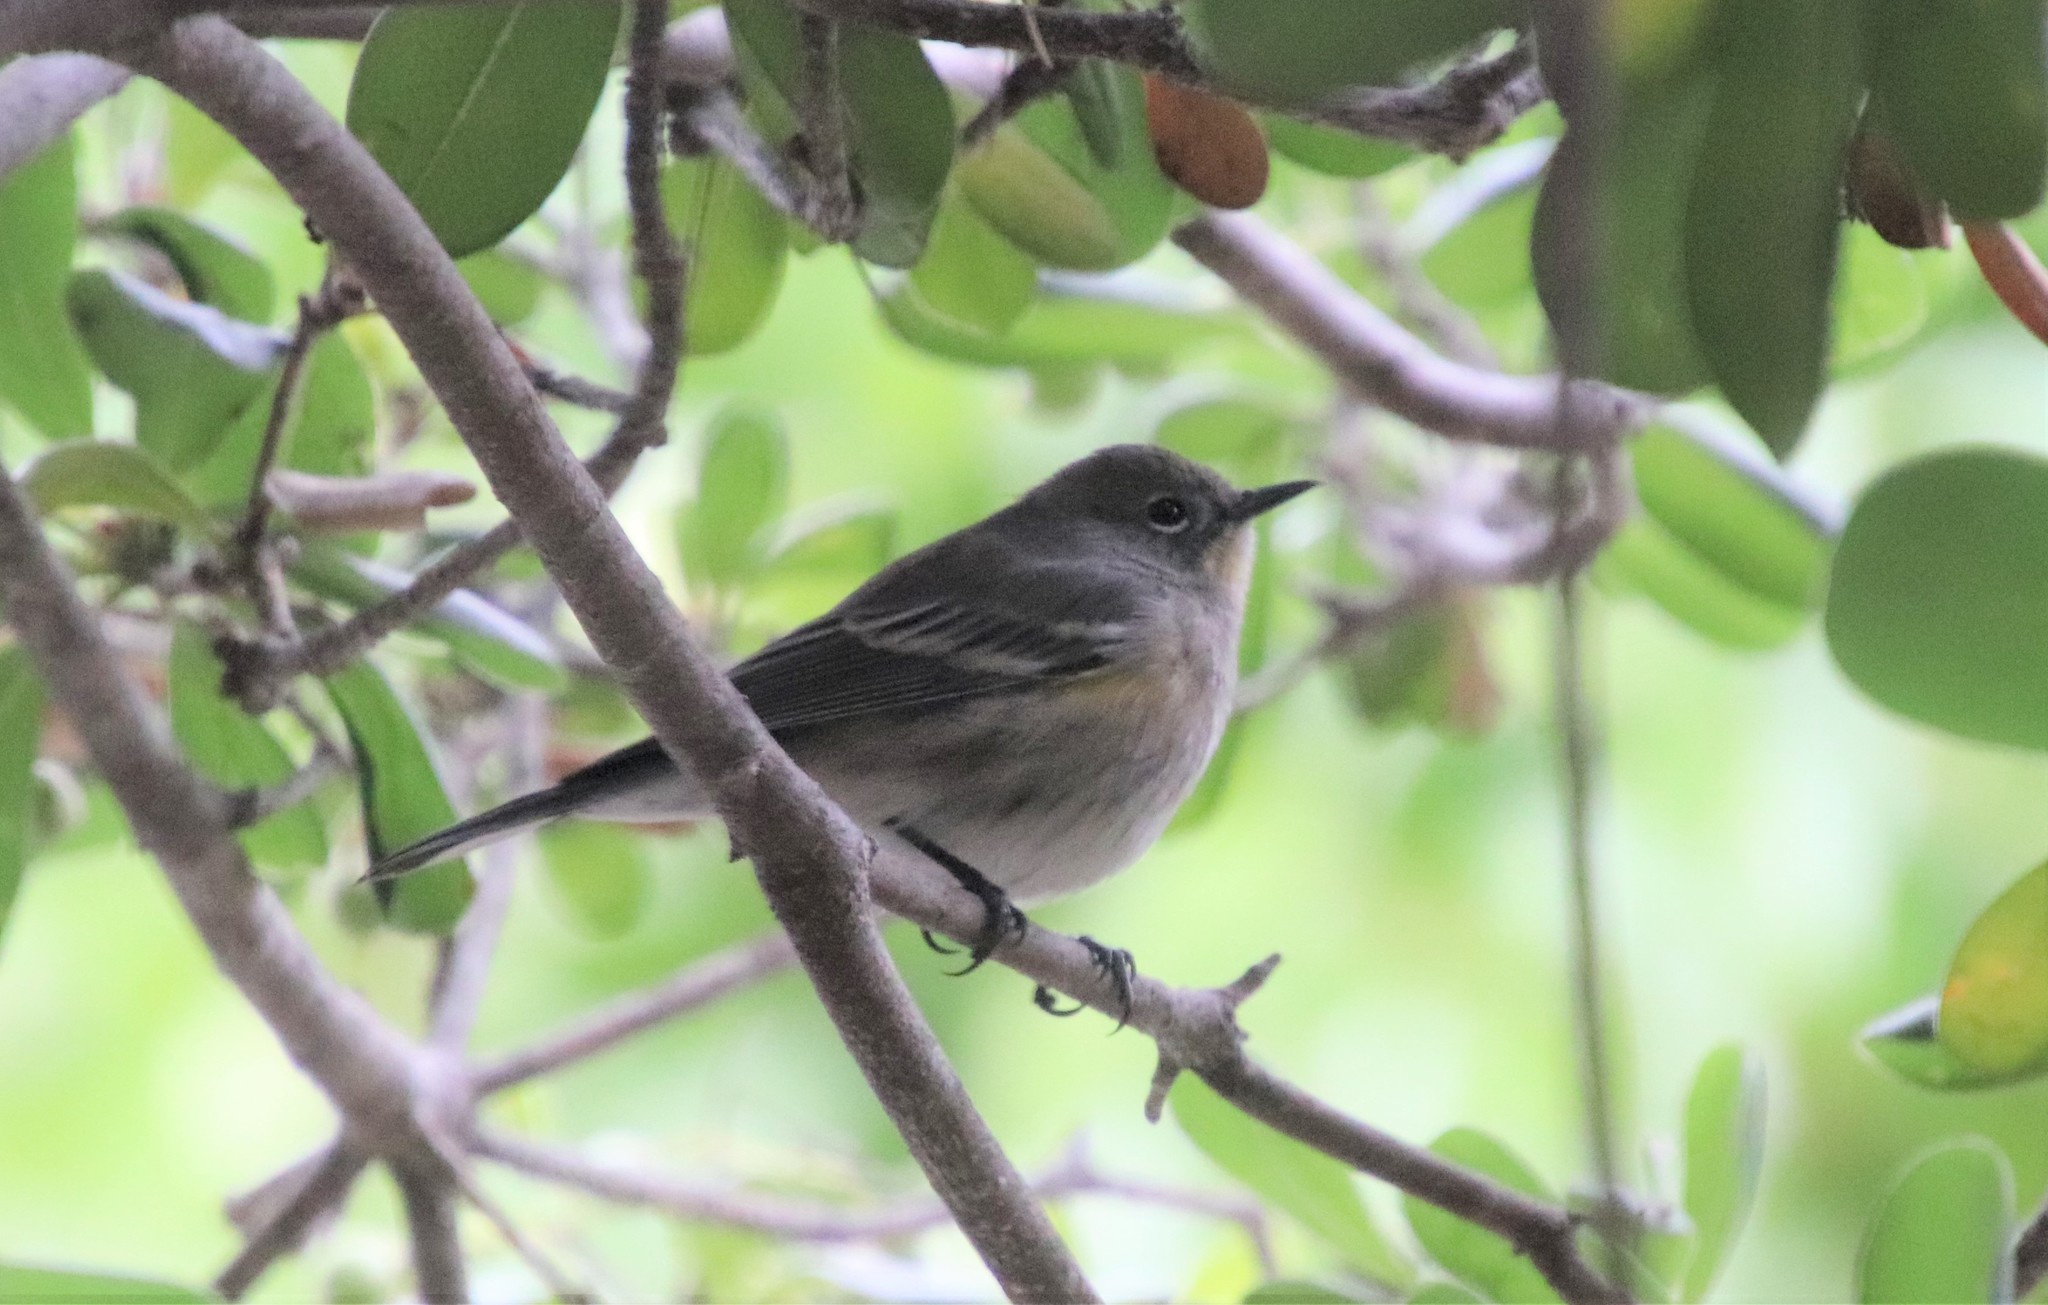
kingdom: Animalia
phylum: Chordata
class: Aves
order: Passeriformes
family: Parulidae
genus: Setophaga
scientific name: Setophaga auduboni
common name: Audubon's warbler
